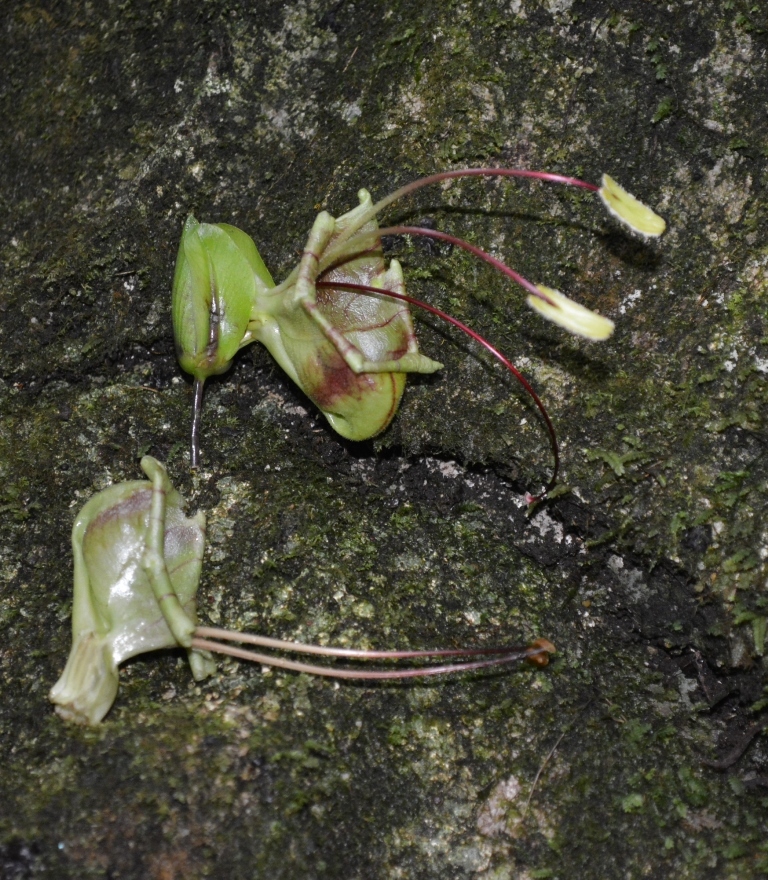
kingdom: Plantae
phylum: Tracheophyta
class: Magnoliopsida
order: Lamiales
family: Acanthaceae
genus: Louteridium
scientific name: Louteridium donnell-smithii
